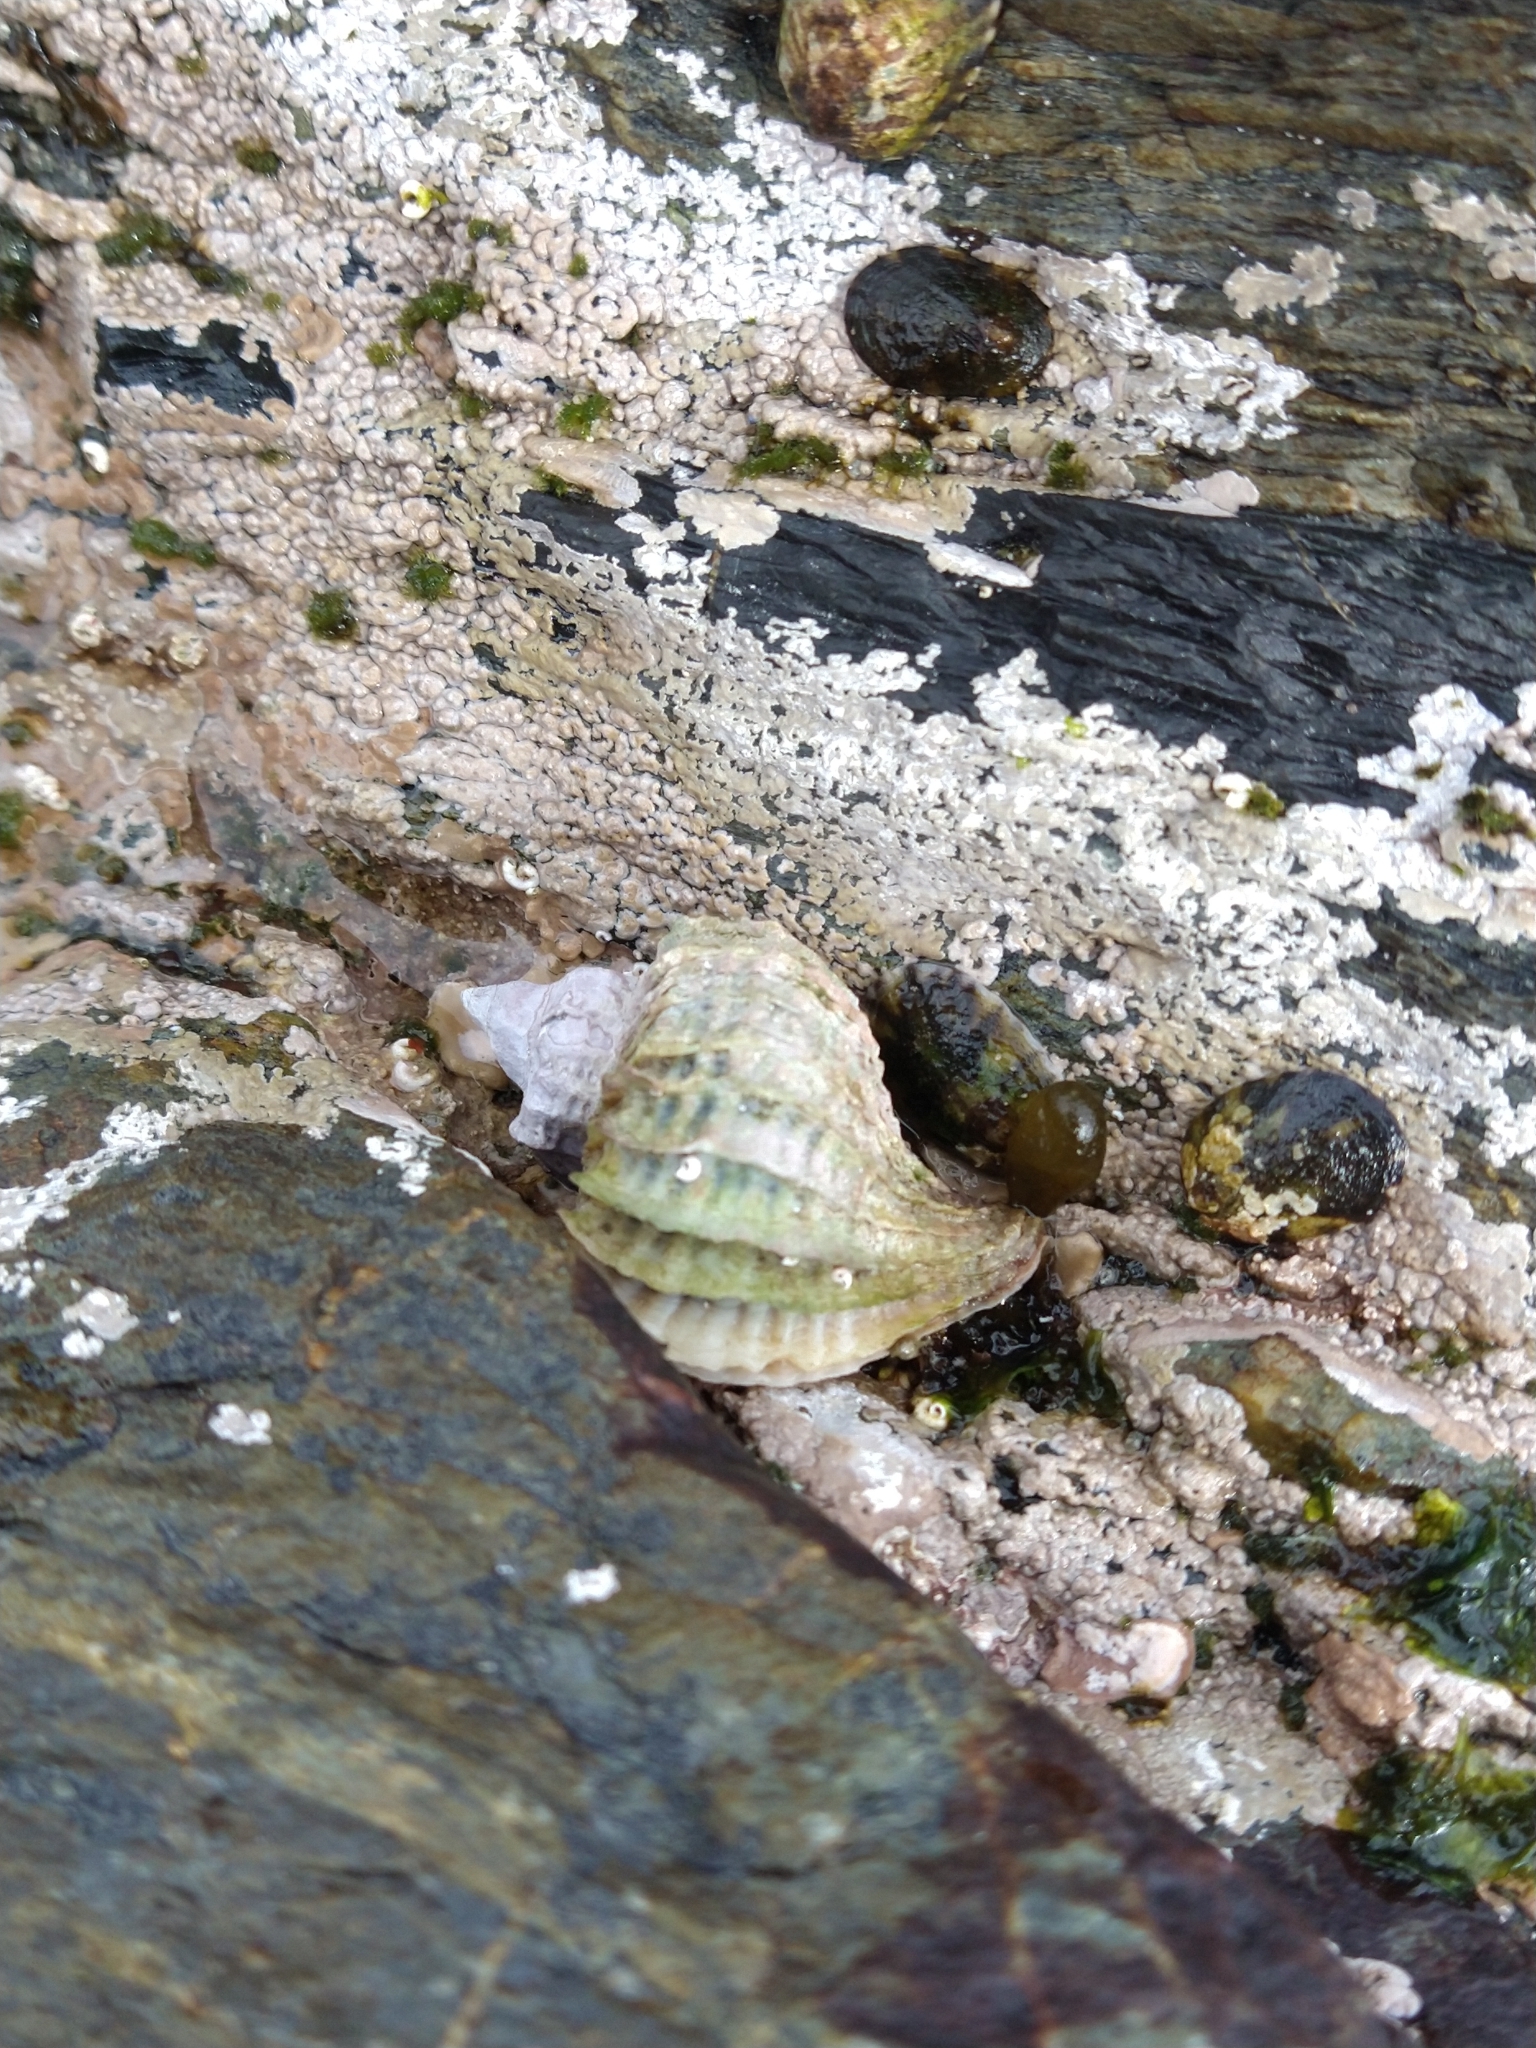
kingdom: Animalia
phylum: Mollusca
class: Gastropoda
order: Neogastropoda
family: Muricidae
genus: Trophon
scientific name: Trophon geversianus
